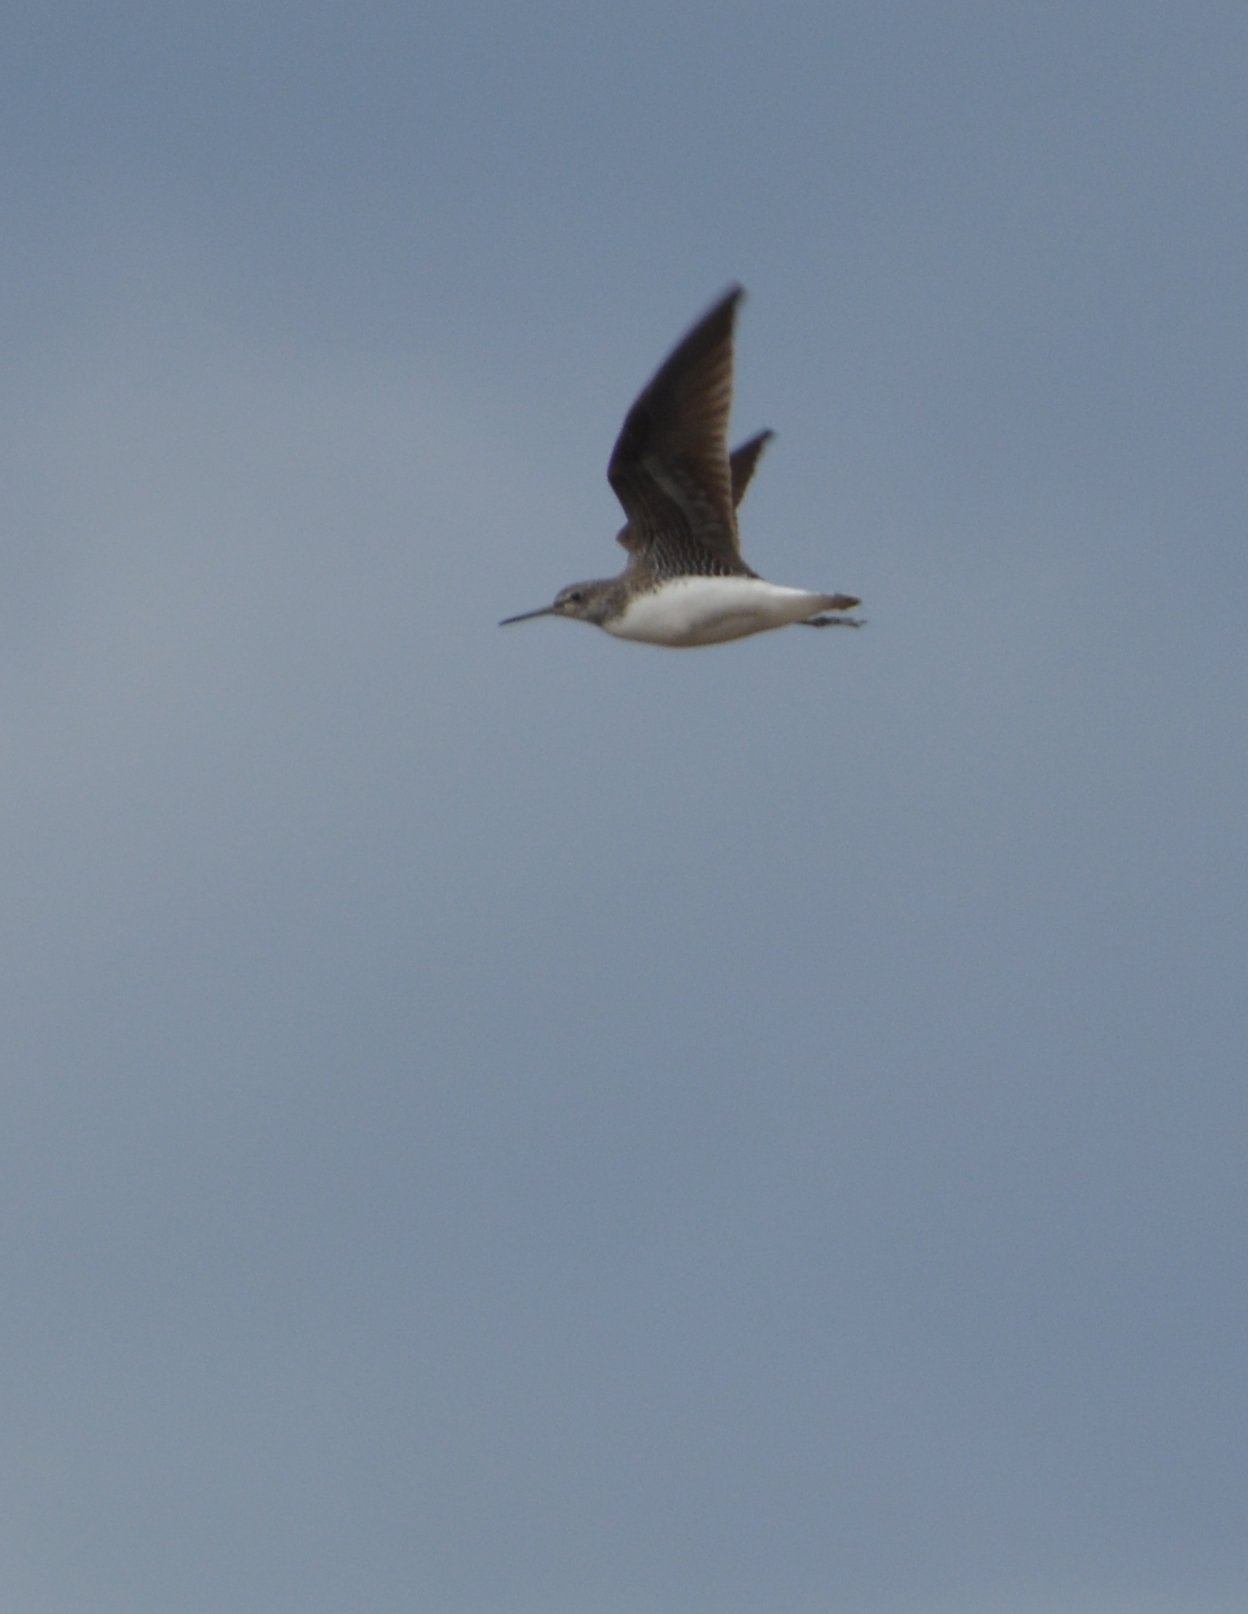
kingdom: Animalia
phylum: Chordata
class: Aves
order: Charadriiformes
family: Scolopacidae
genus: Tringa
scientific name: Tringa ochropus
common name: Green sandpiper
